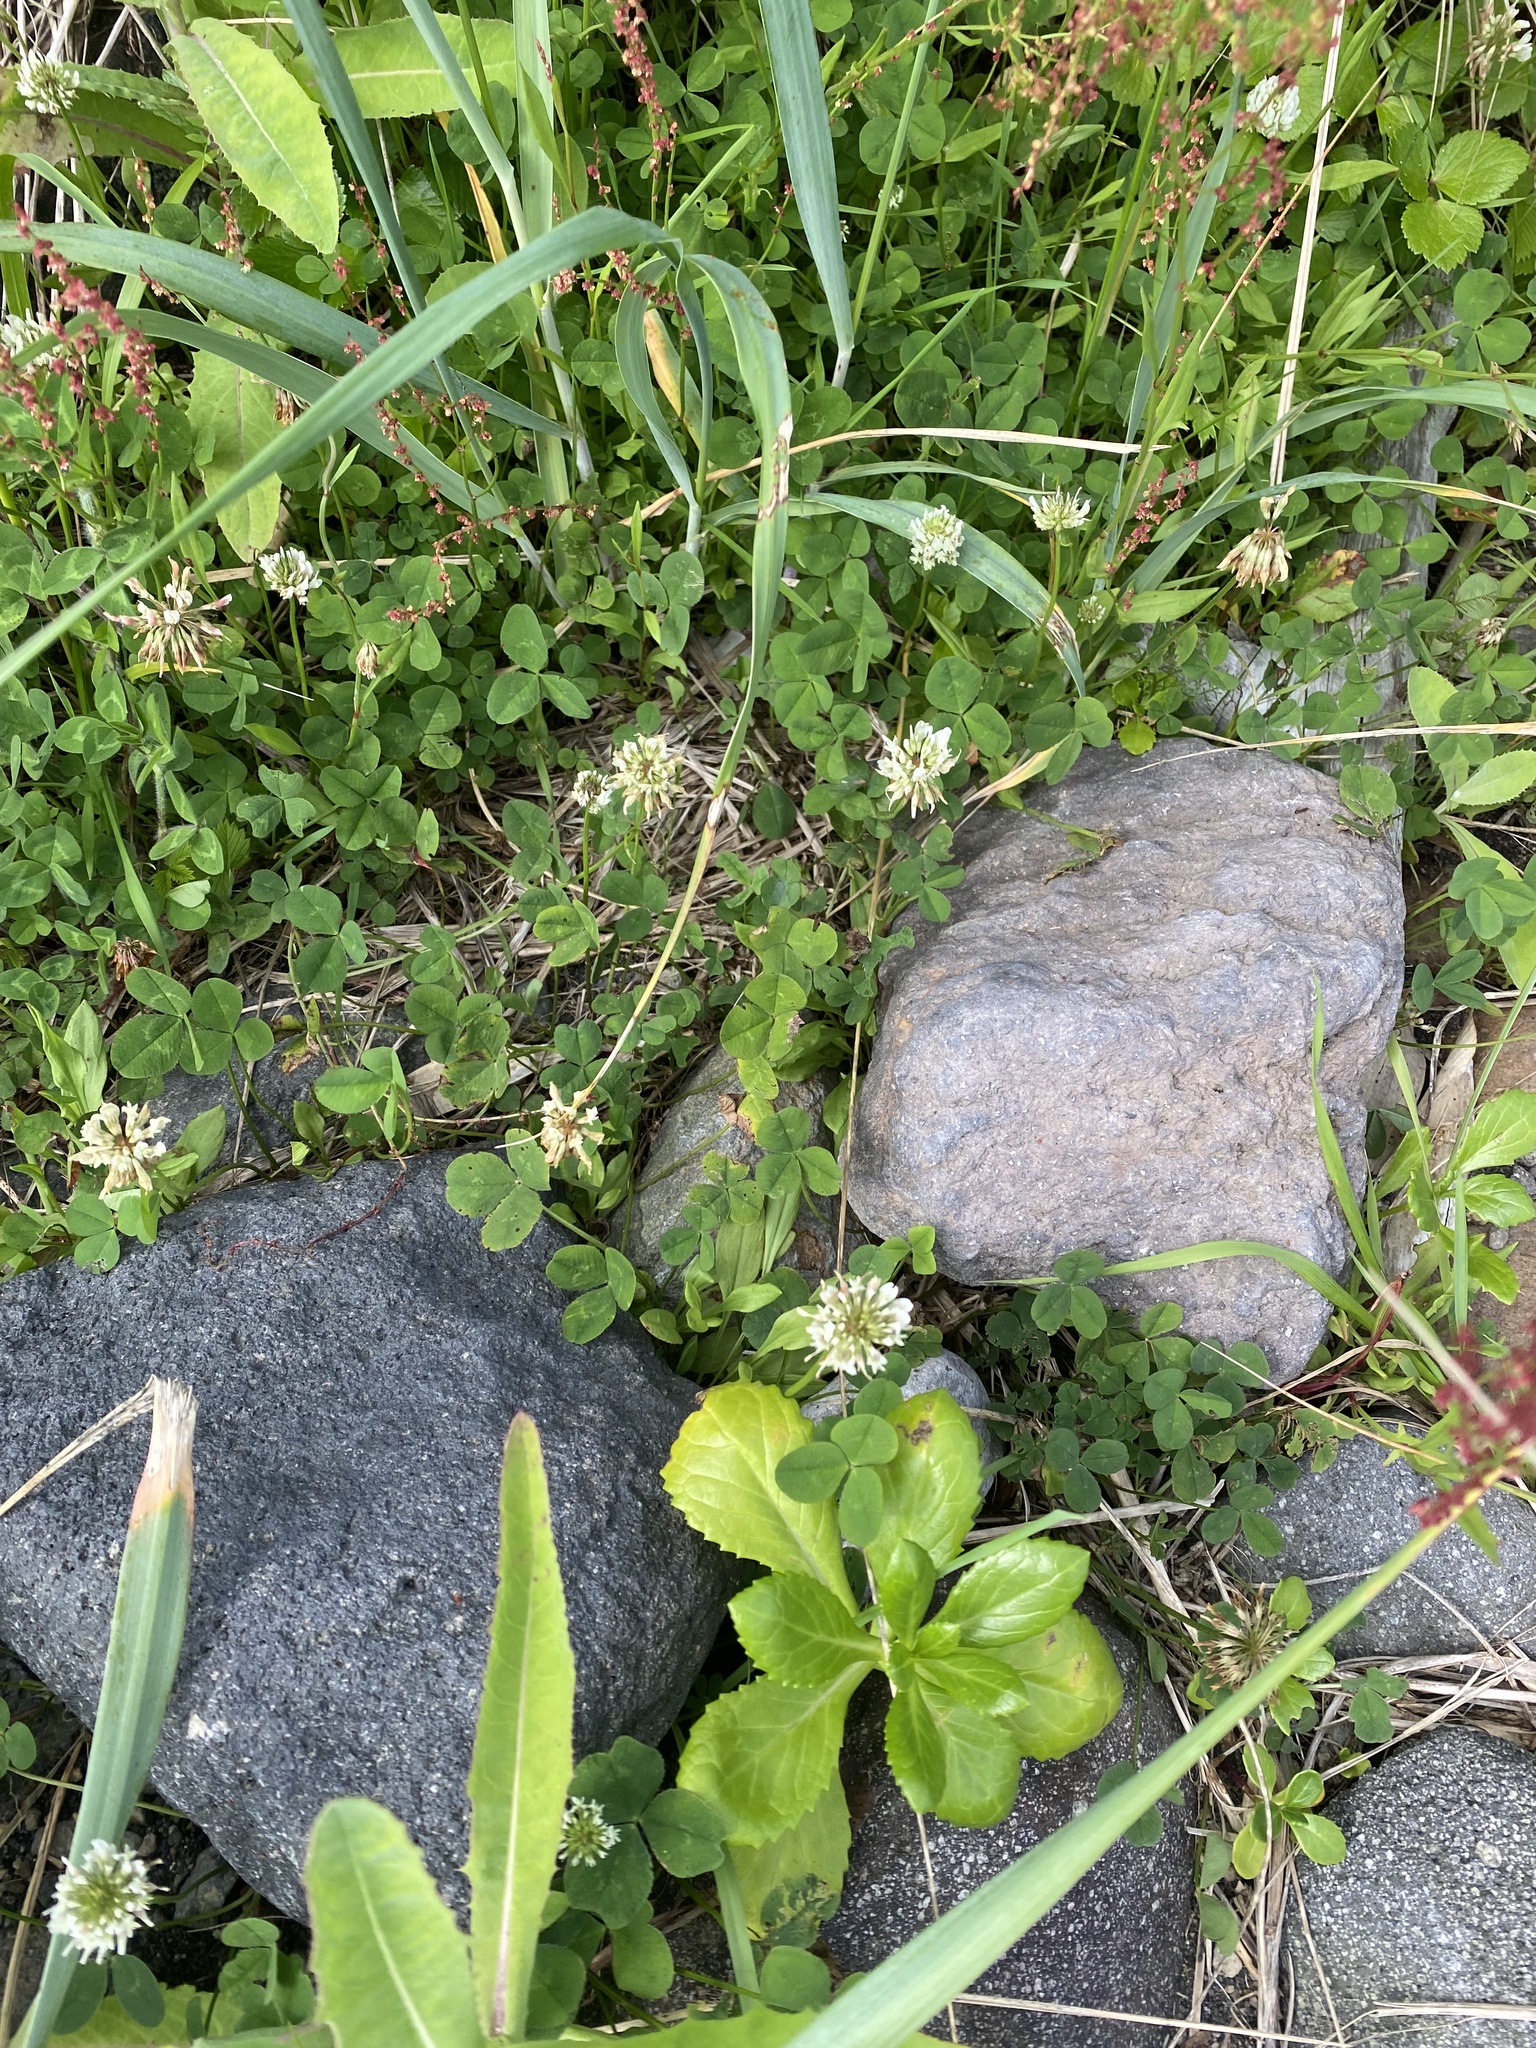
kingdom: Plantae
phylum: Tracheophyta
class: Magnoliopsida
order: Fabales
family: Fabaceae
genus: Trifolium
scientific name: Trifolium repens
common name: White clover
